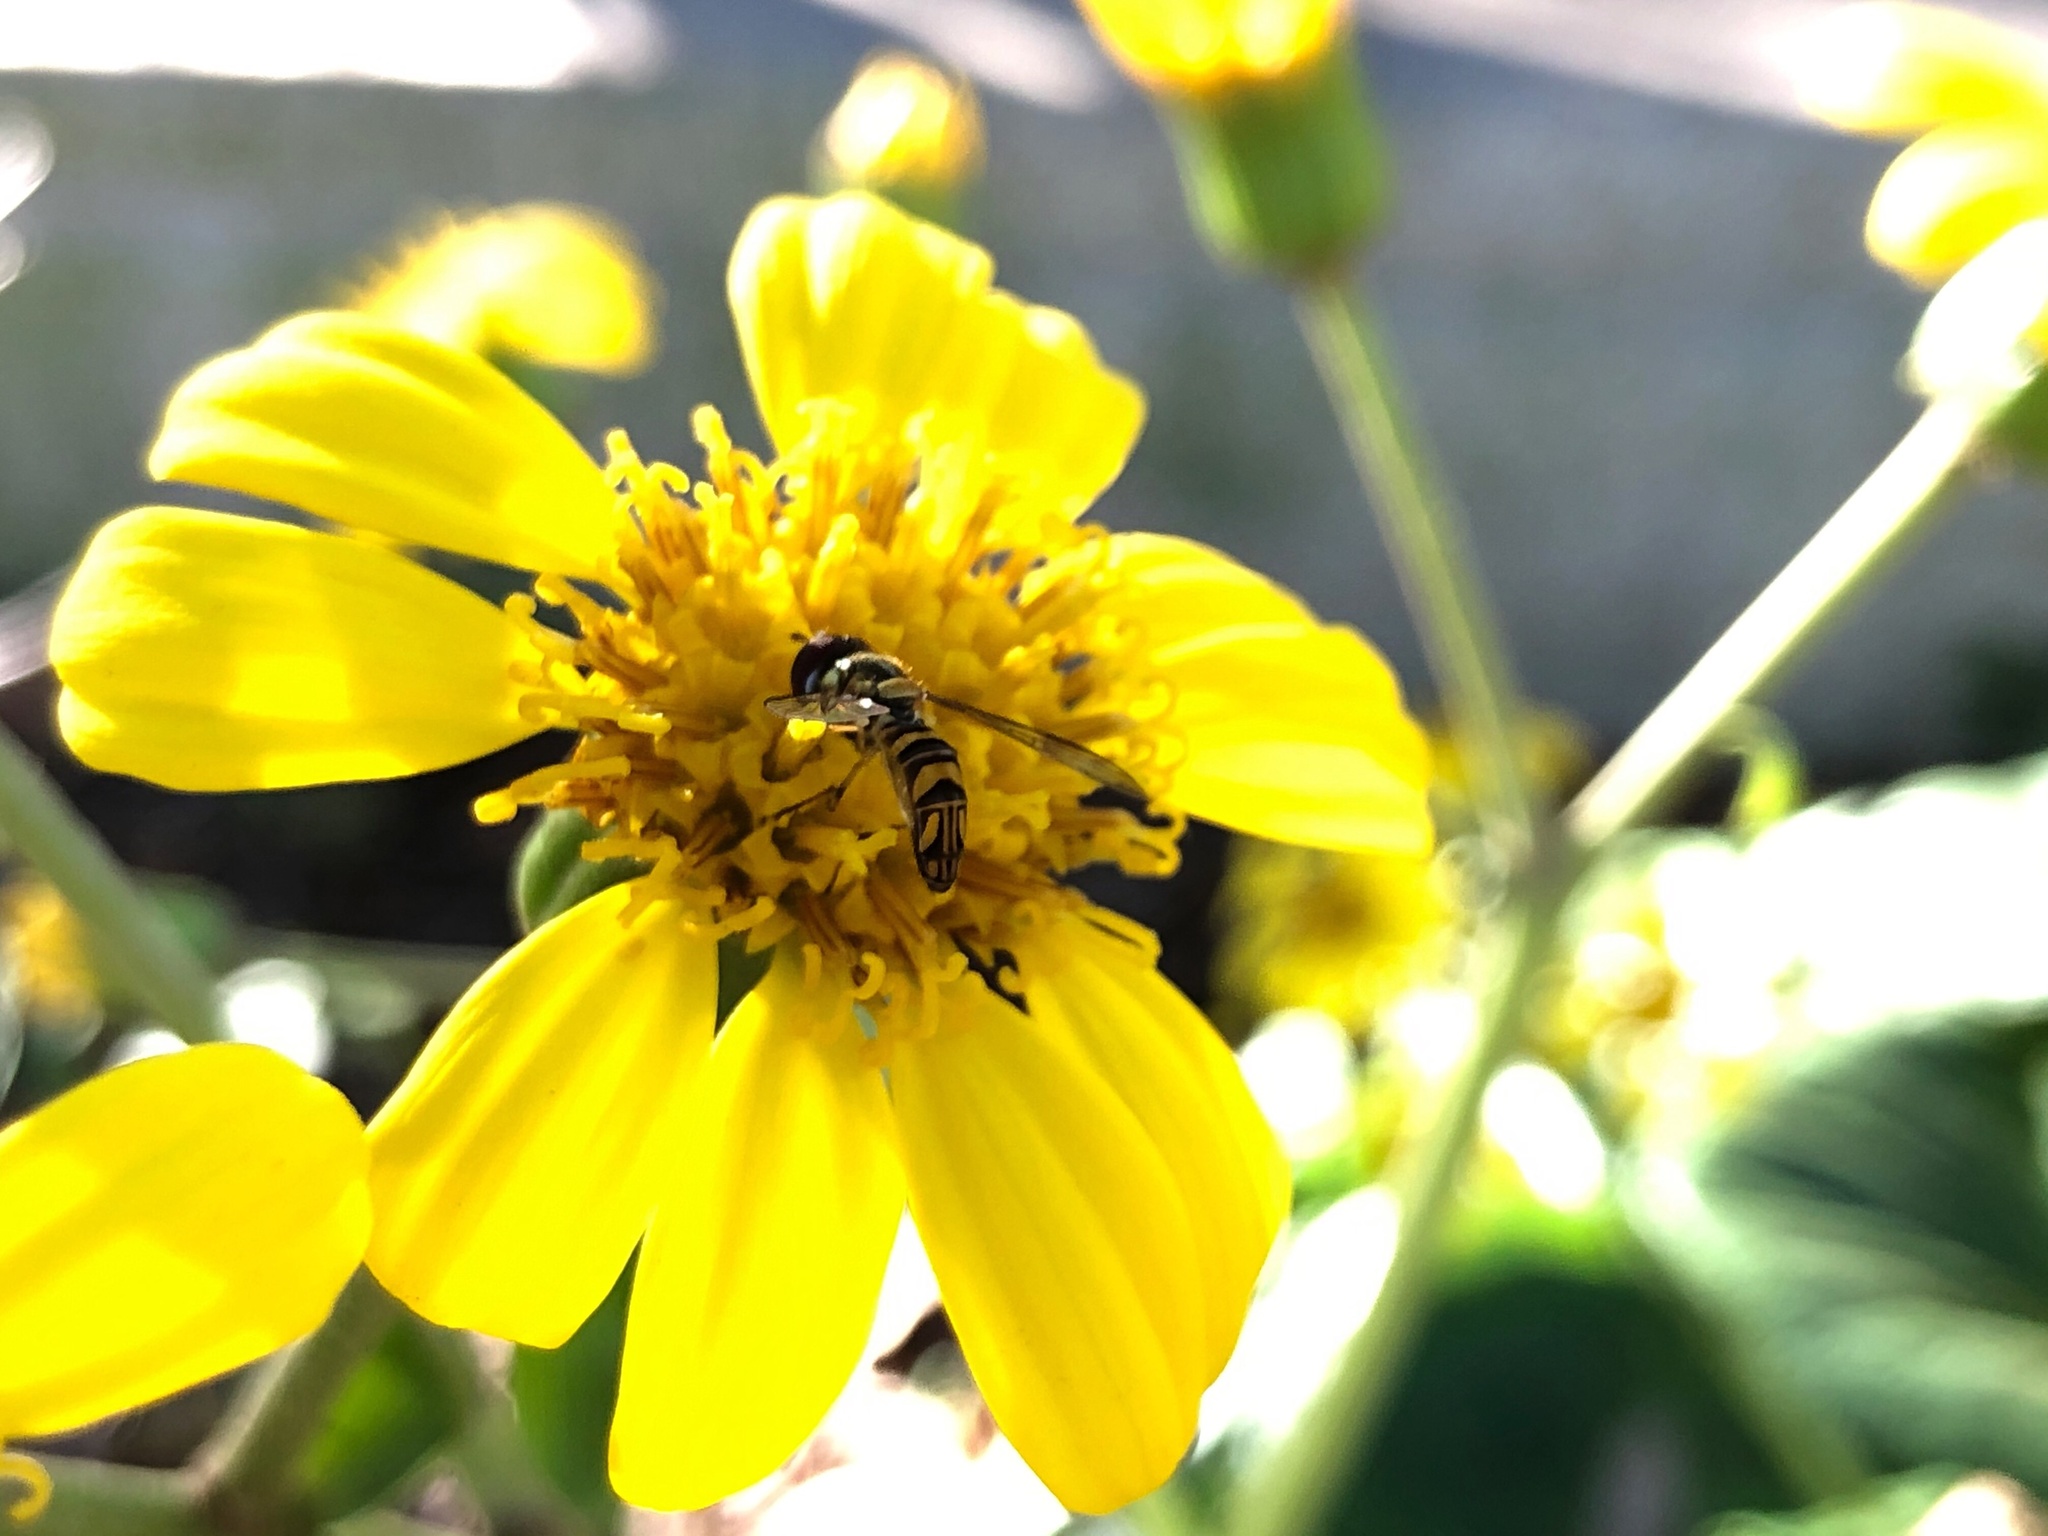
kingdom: Animalia
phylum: Arthropoda
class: Insecta
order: Diptera
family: Syrphidae
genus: Allograpta
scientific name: Allograpta obliqua
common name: Common oblique syrphid
